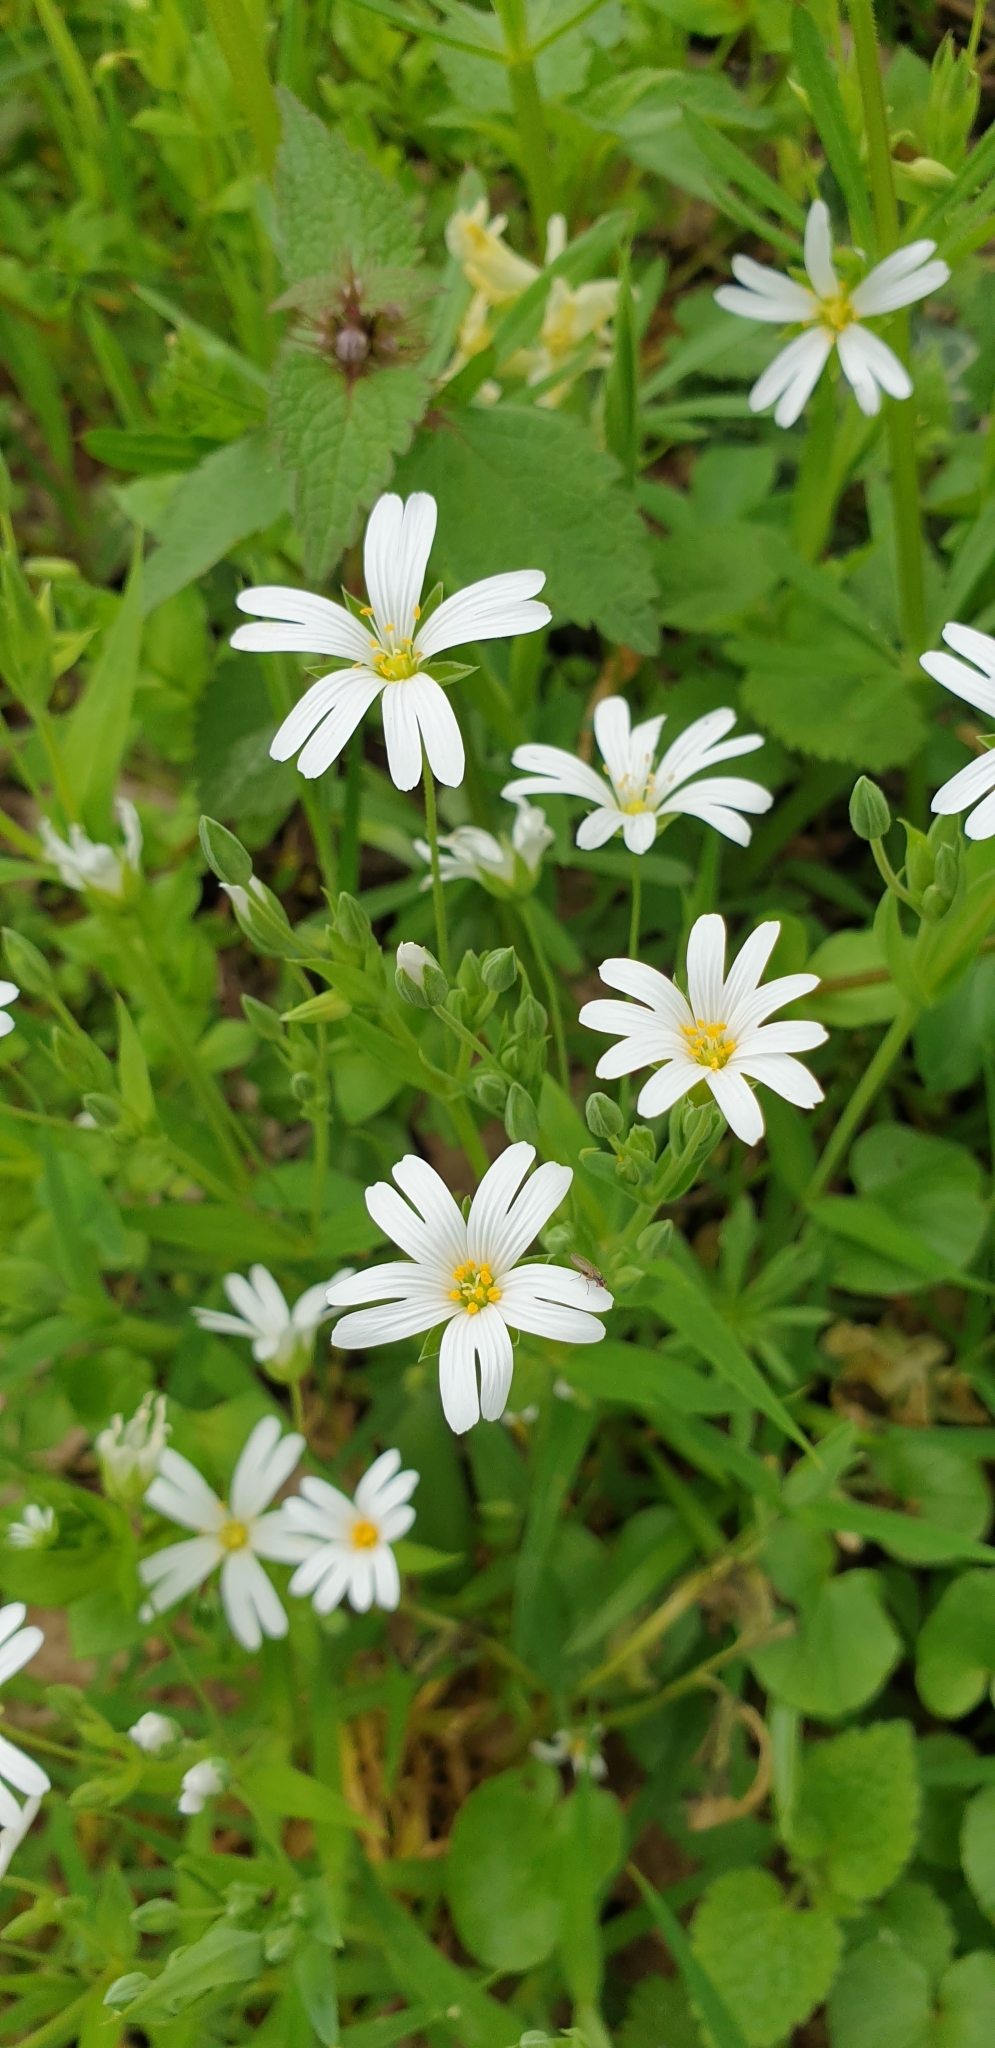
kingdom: Plantae
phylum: Tracheophyta
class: Magnoliopsida
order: Caryophyllales
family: Caryophyllaceae
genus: Rabelera
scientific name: Rabelera holostea
